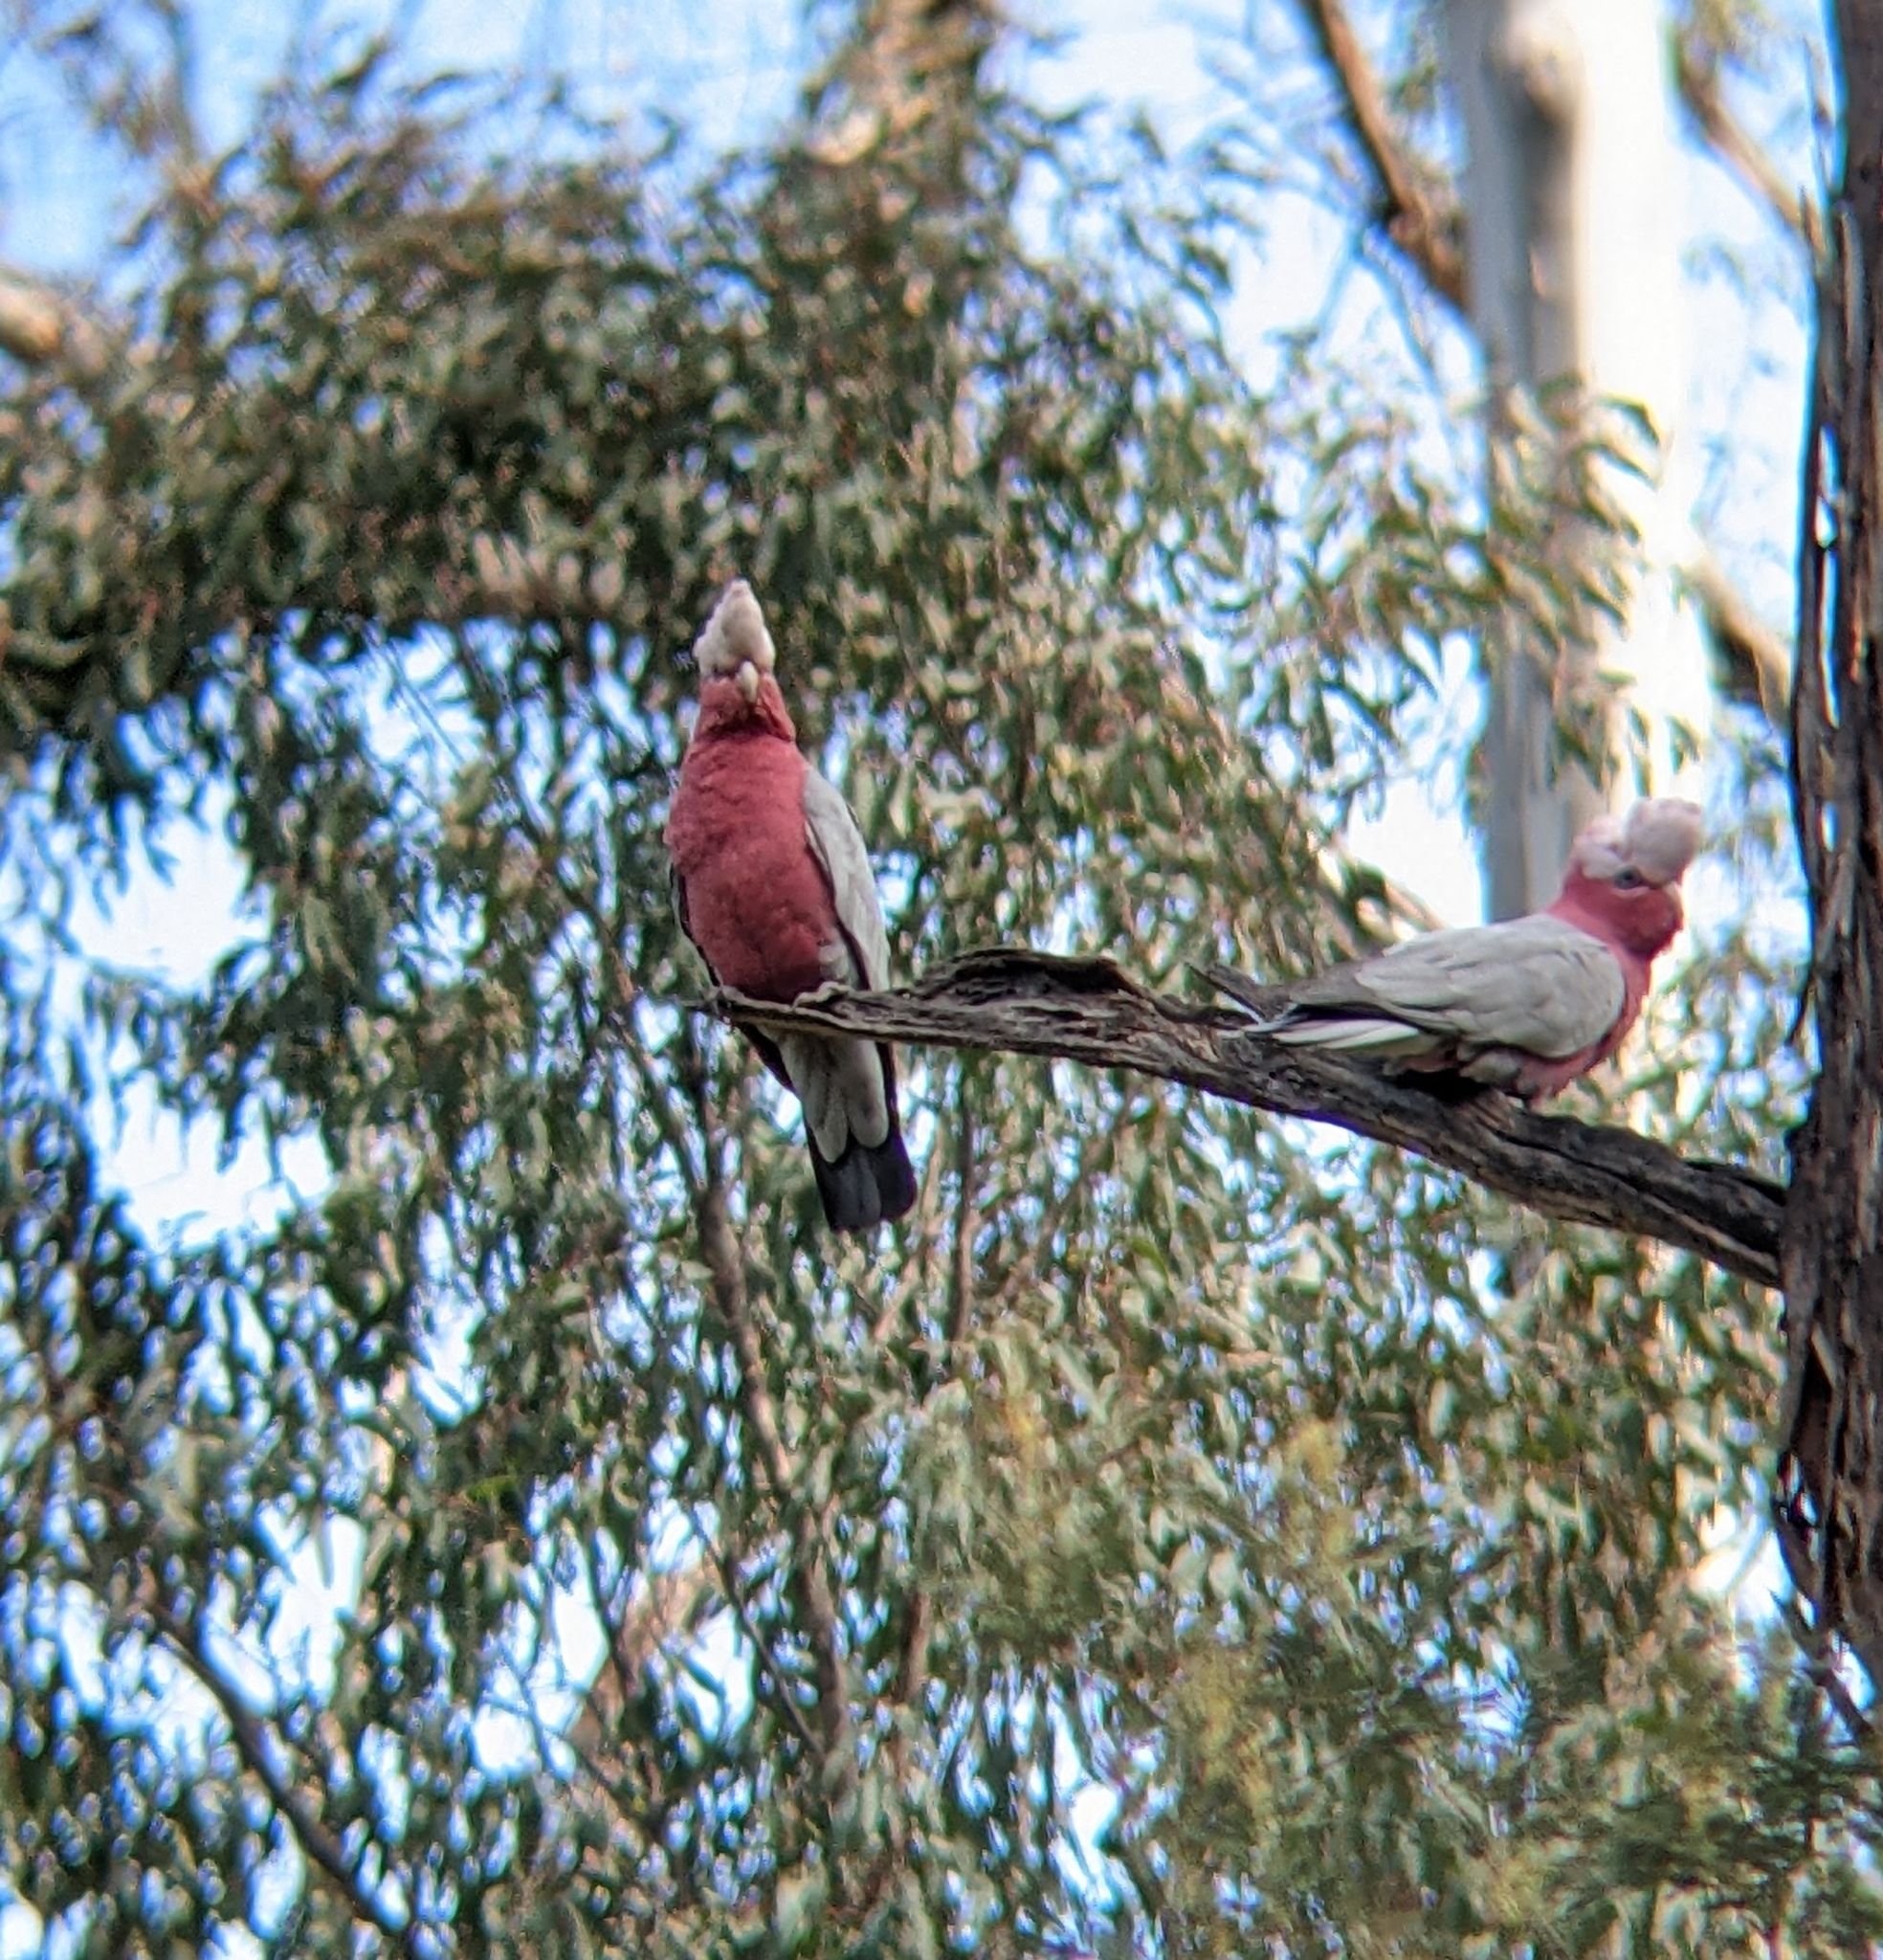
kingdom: Animalia
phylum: Chordata
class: Aves
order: Psittaciformes
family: Psittacidae
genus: Eolophus
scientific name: Eolophus roseicapilla
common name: Galah
